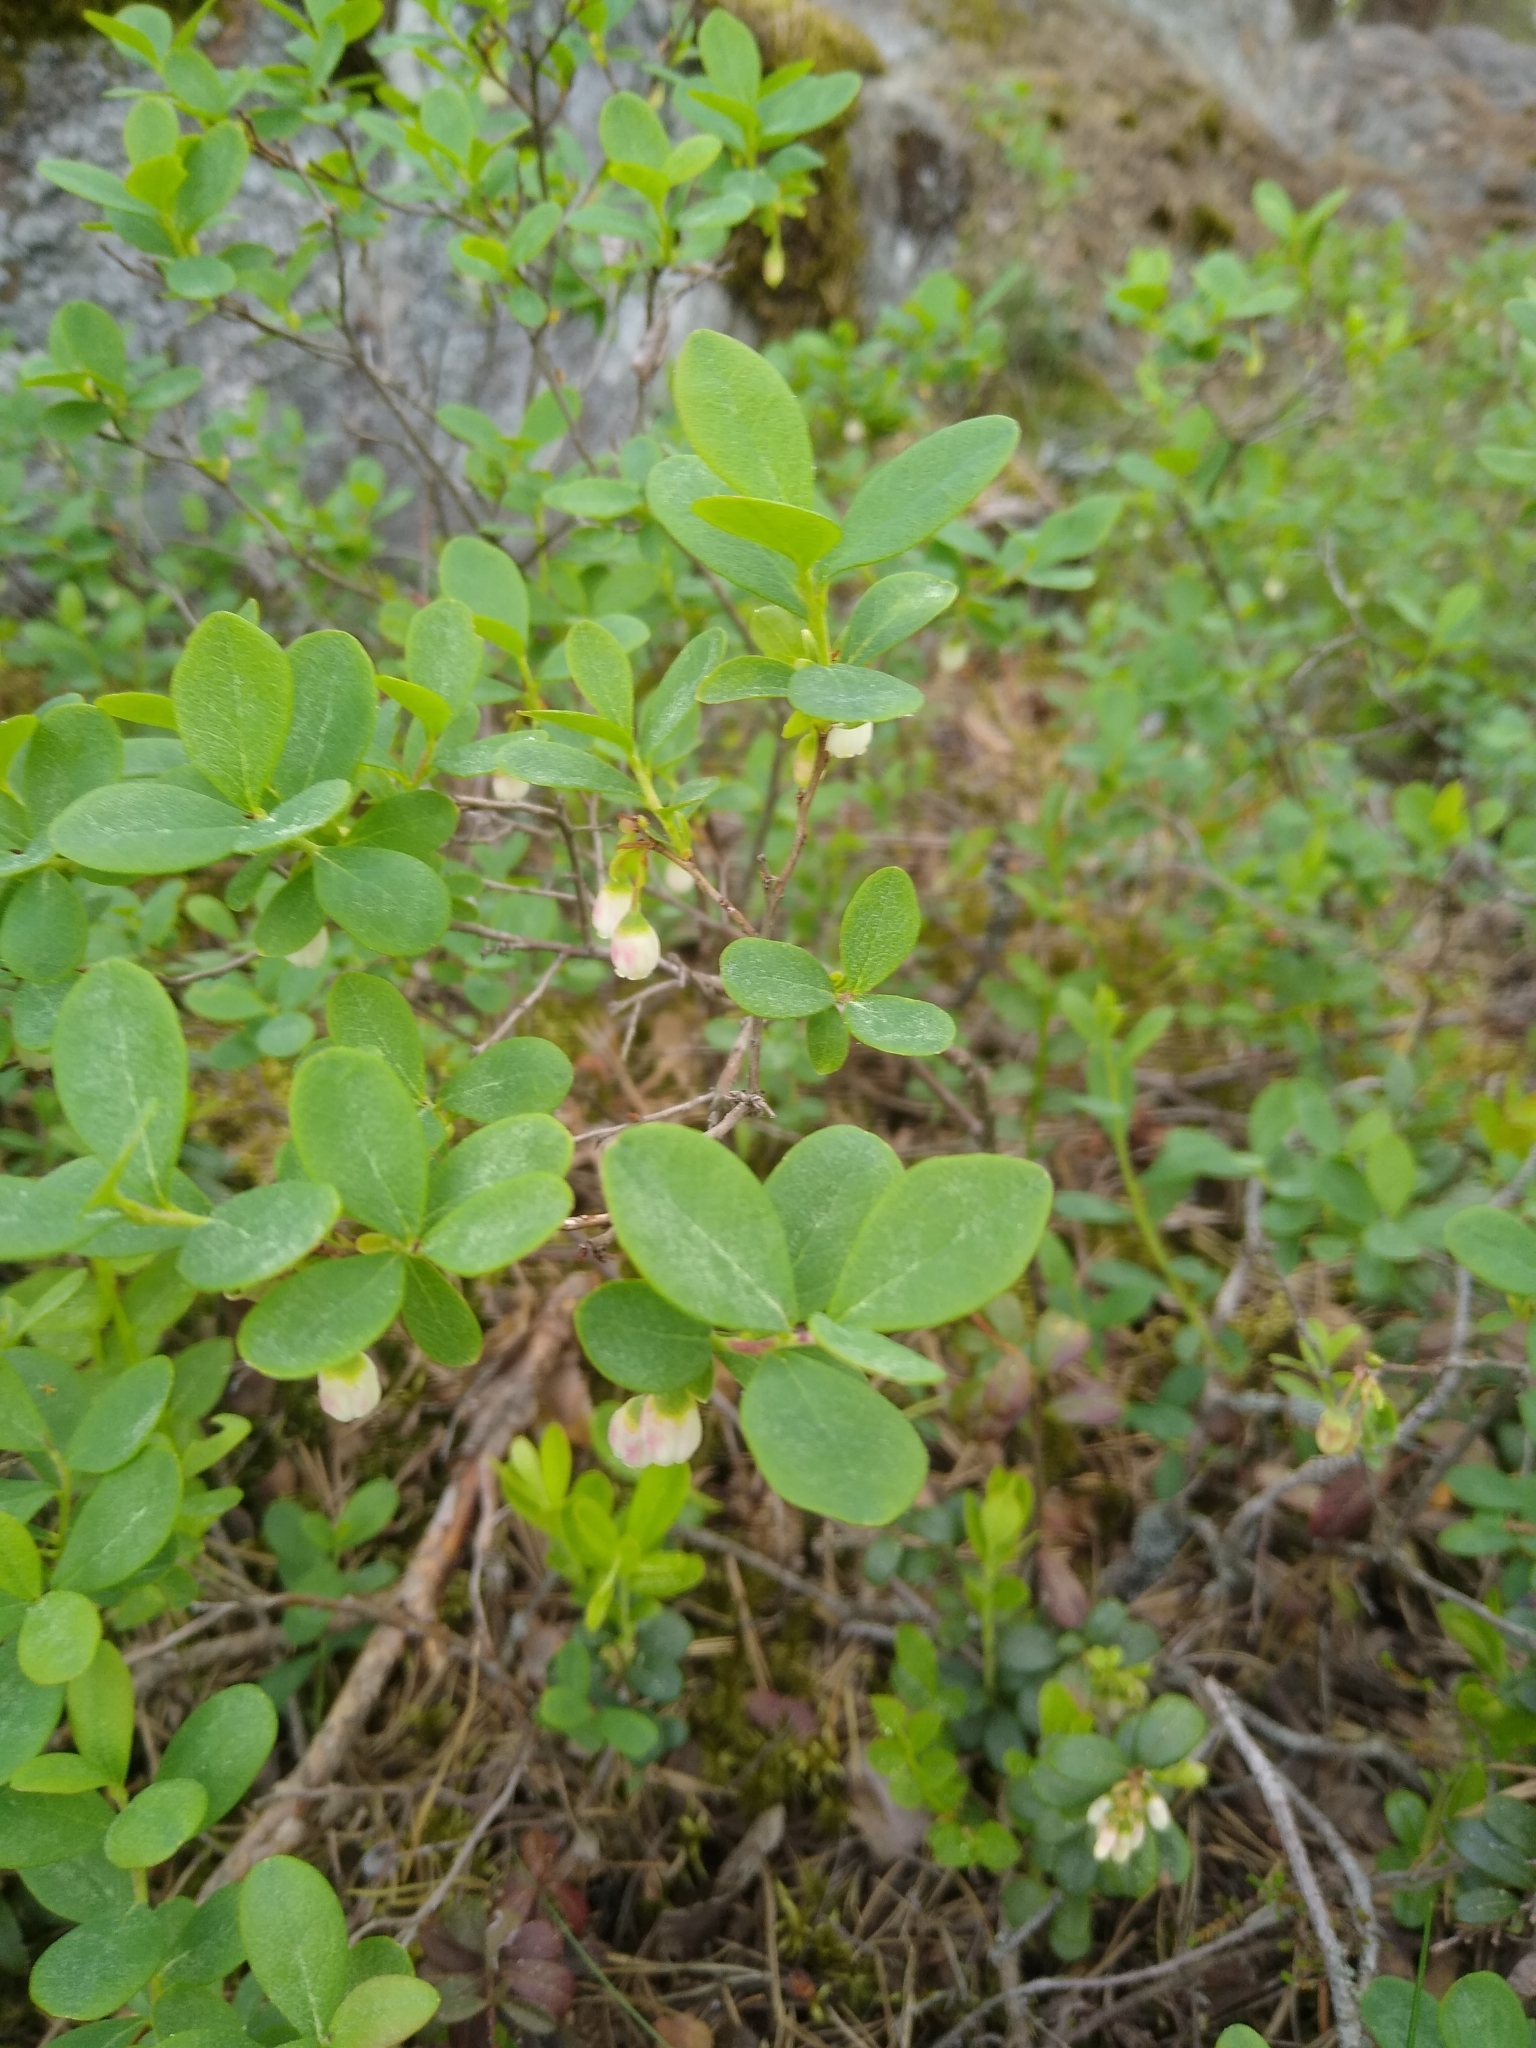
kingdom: Plantae
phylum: Tracheophyta
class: Magnoliopsida
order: Ericales
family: Ericaceae
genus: Vaccinium
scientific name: Vaccinium uliginosum
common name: Bog bilberry
